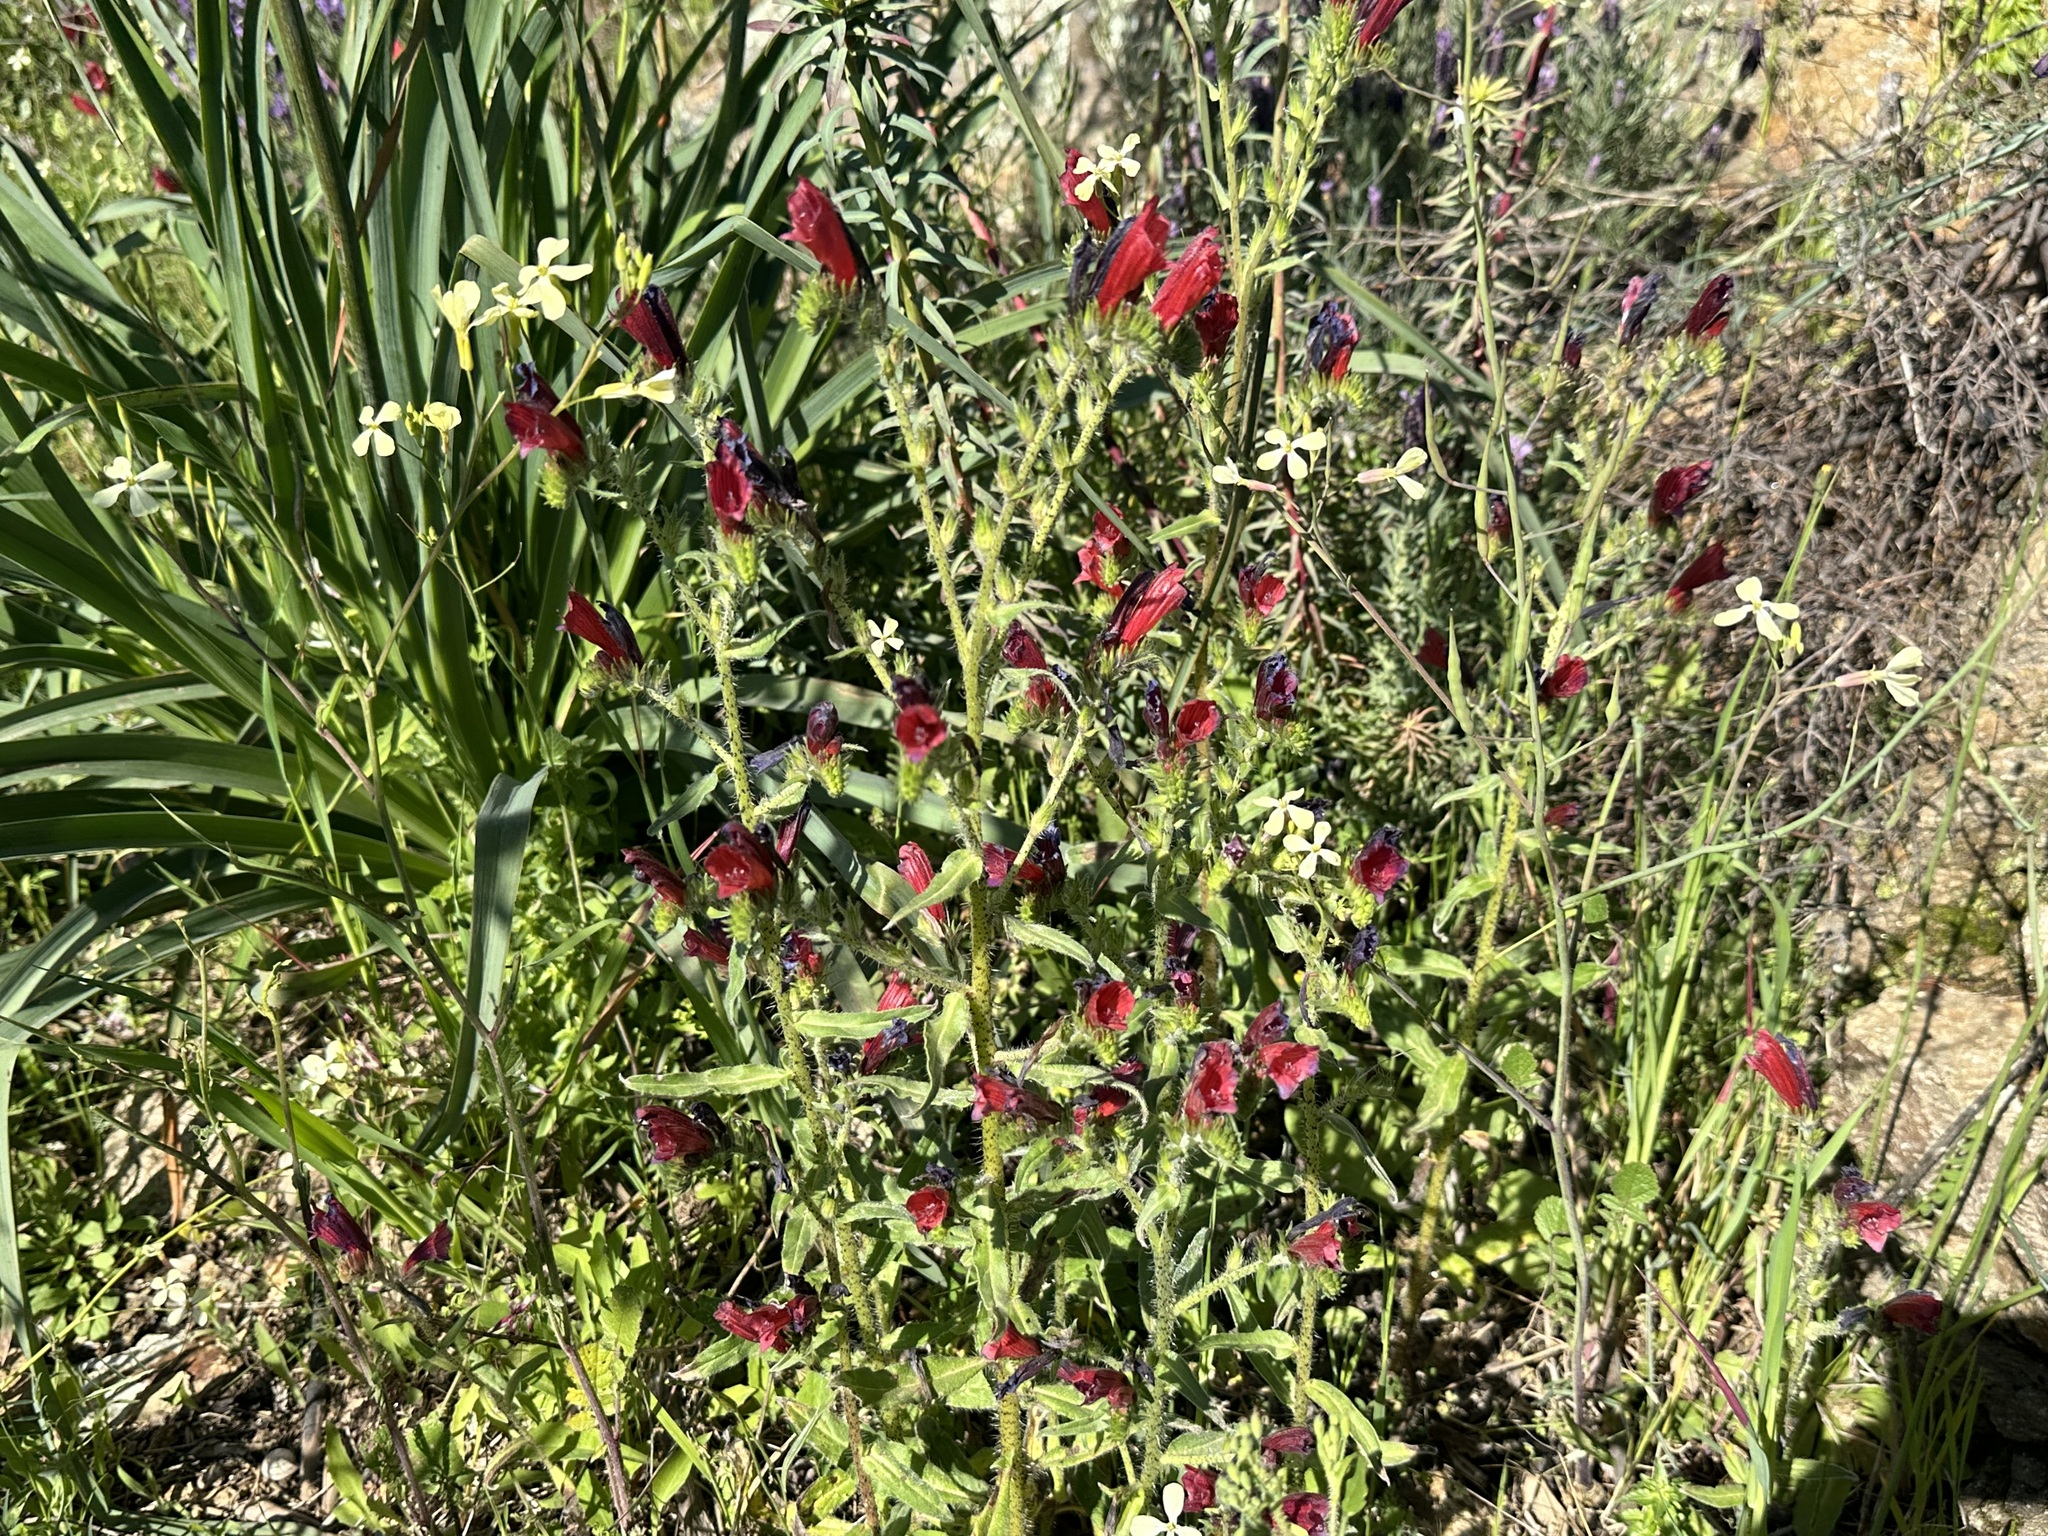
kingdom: Plantae
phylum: Tracheophyta
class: Magnoliopsida
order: Boraginales
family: Boraginaceae
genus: Echium
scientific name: Echium creticum
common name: Cretan viper's bugloss
